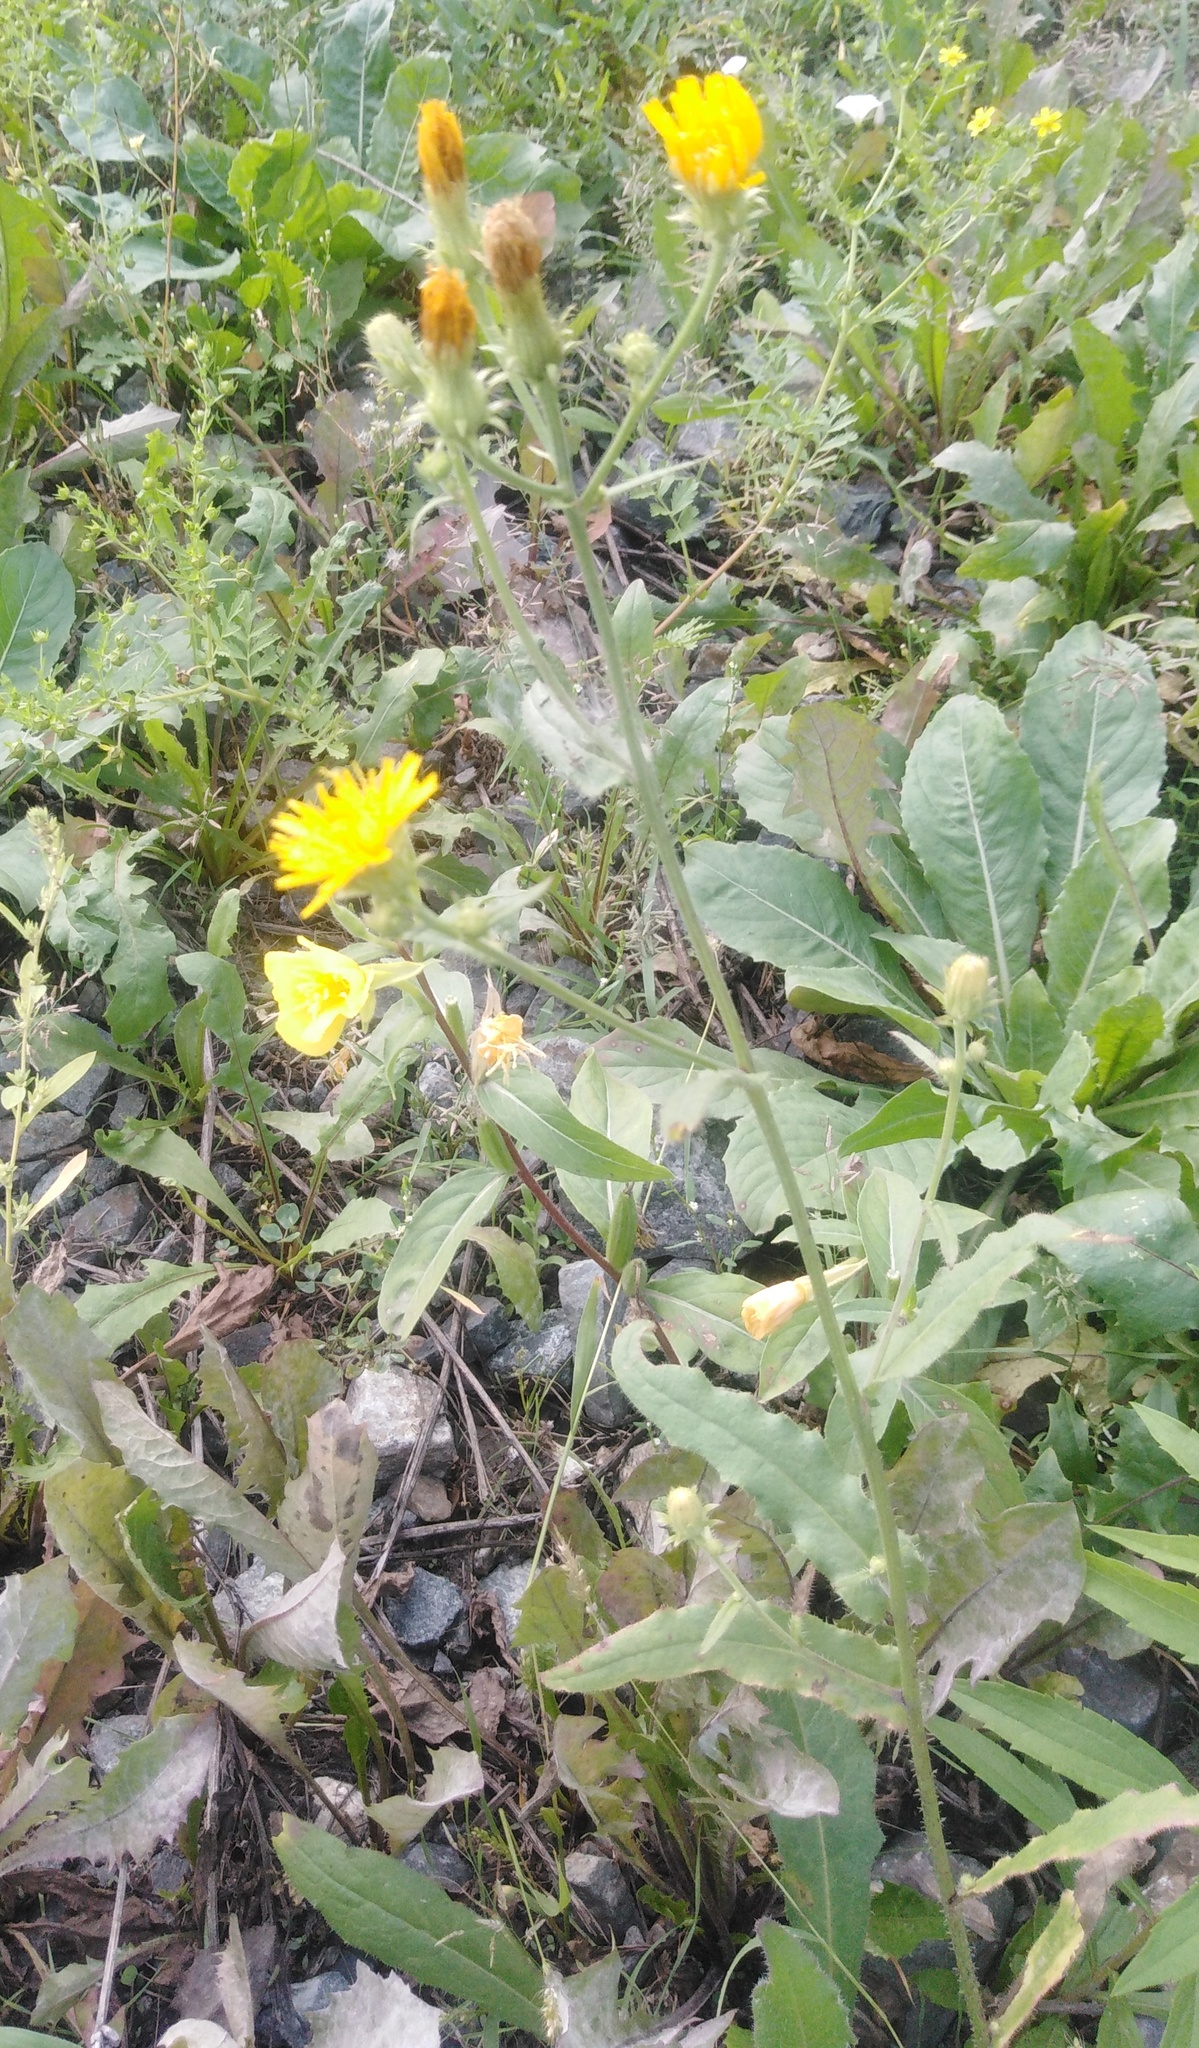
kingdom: Plantae
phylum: Tracheophyta
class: Magnoliopsida
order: Asterales
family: Asteraceae
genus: Picris
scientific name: Picris hieracioides
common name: Hawkweed oxtongue
